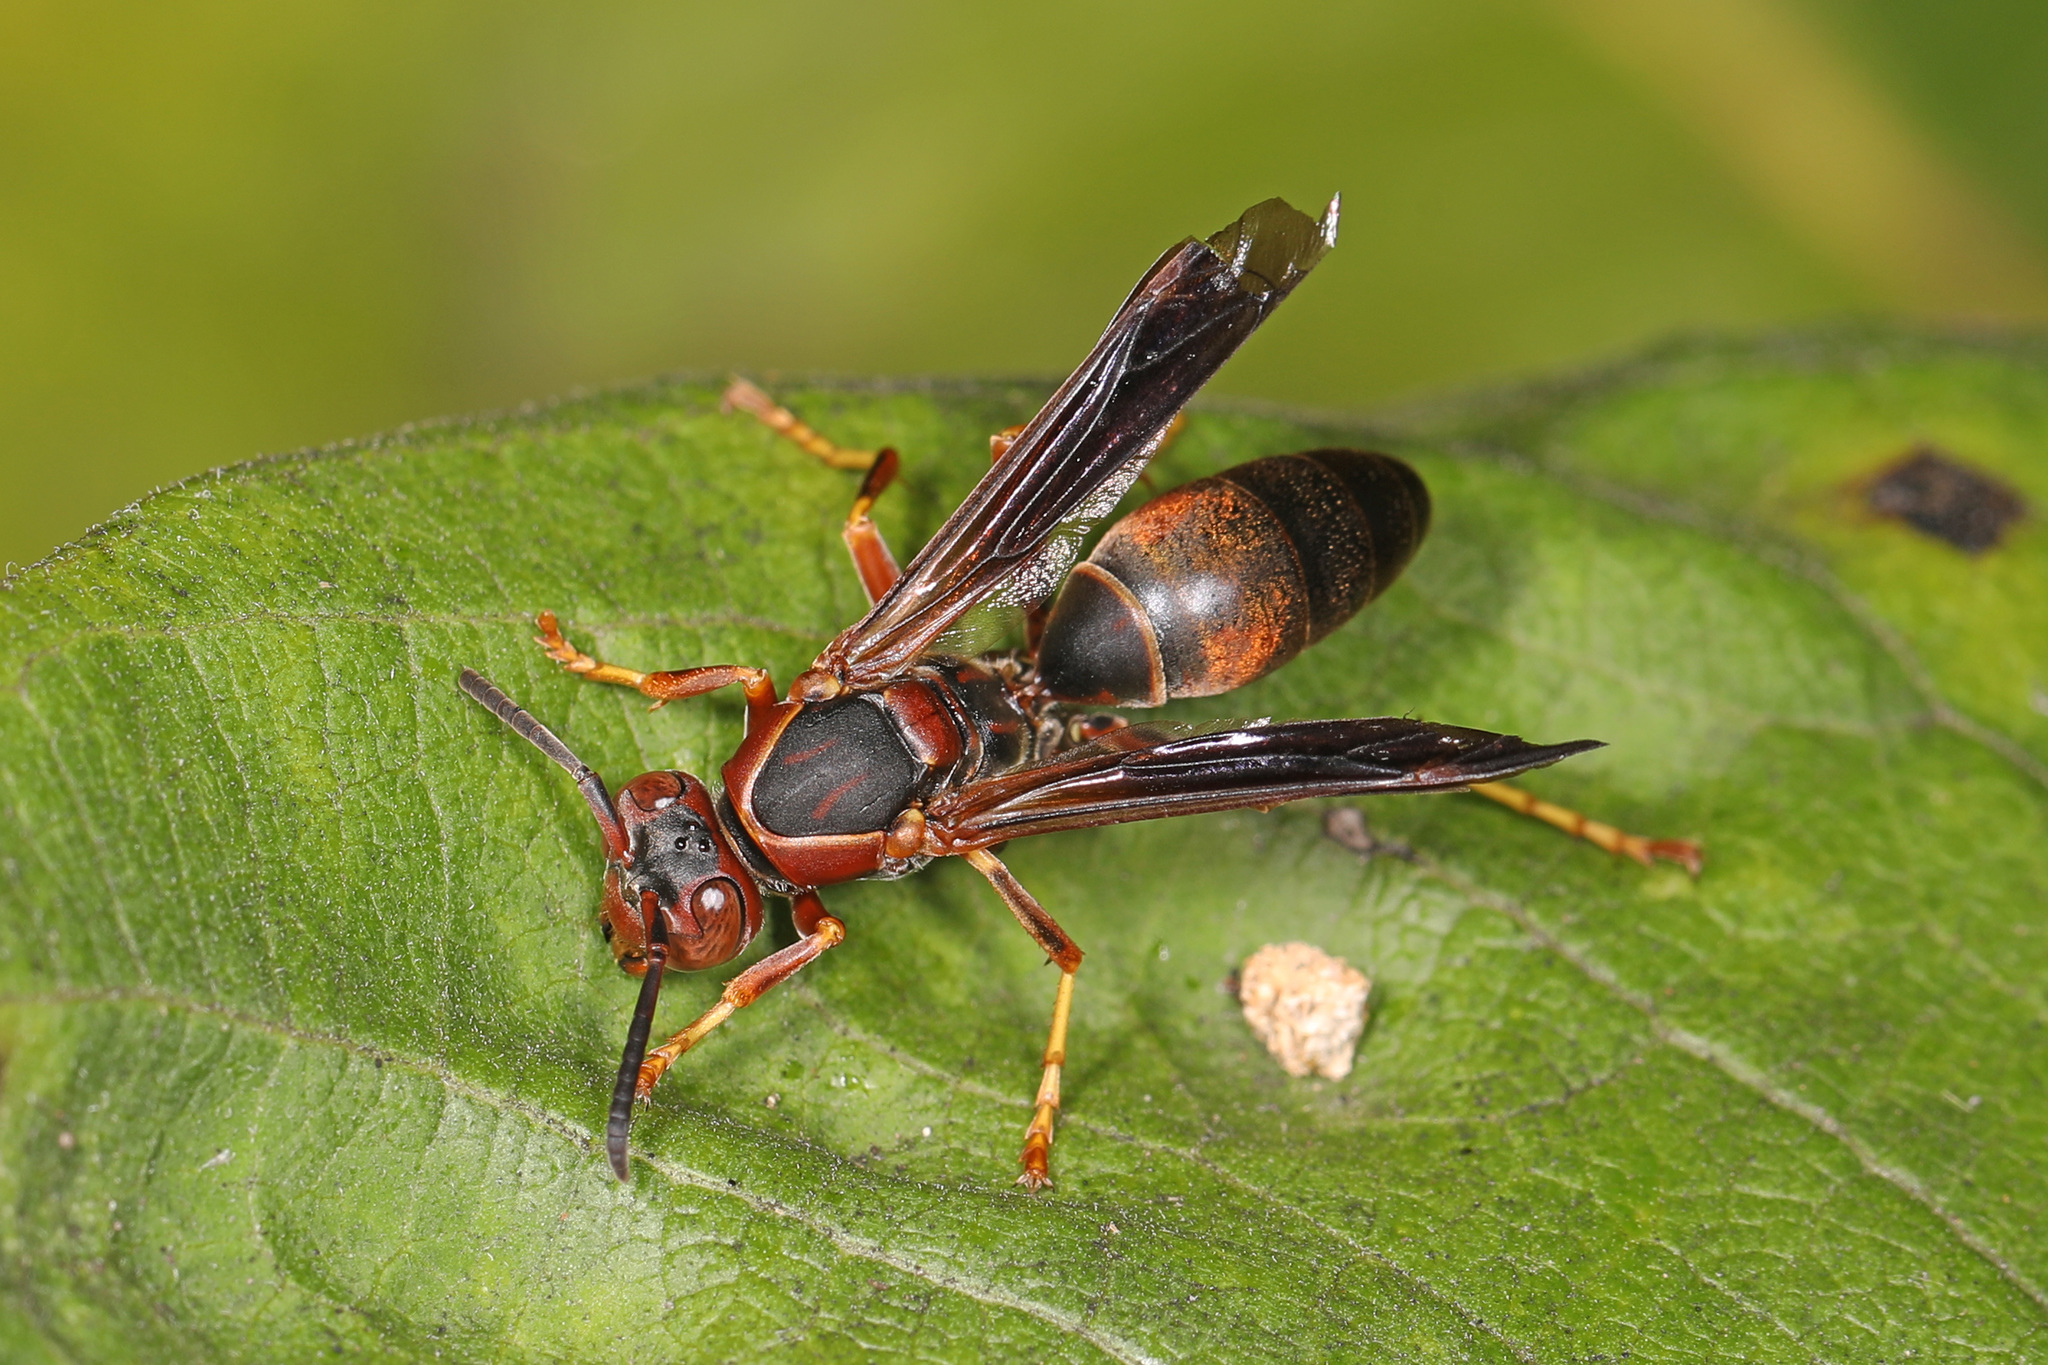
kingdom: Animalia
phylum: Arthropoda
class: Insecta
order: Hymenoptera
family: Eumenidae
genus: Polistes
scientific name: Polistes fuscatus
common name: Dark paper wasp
